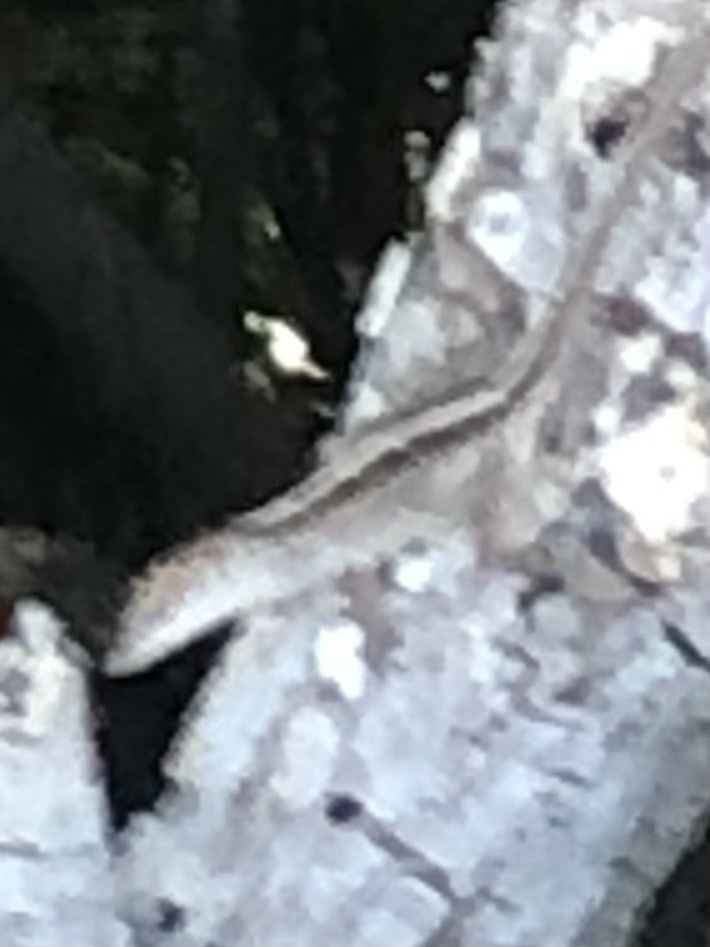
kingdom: Animalia
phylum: Chordata
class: Squamata
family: Dactyloidae
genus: Anolis
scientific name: Anolis sagrei
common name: Brown anole
